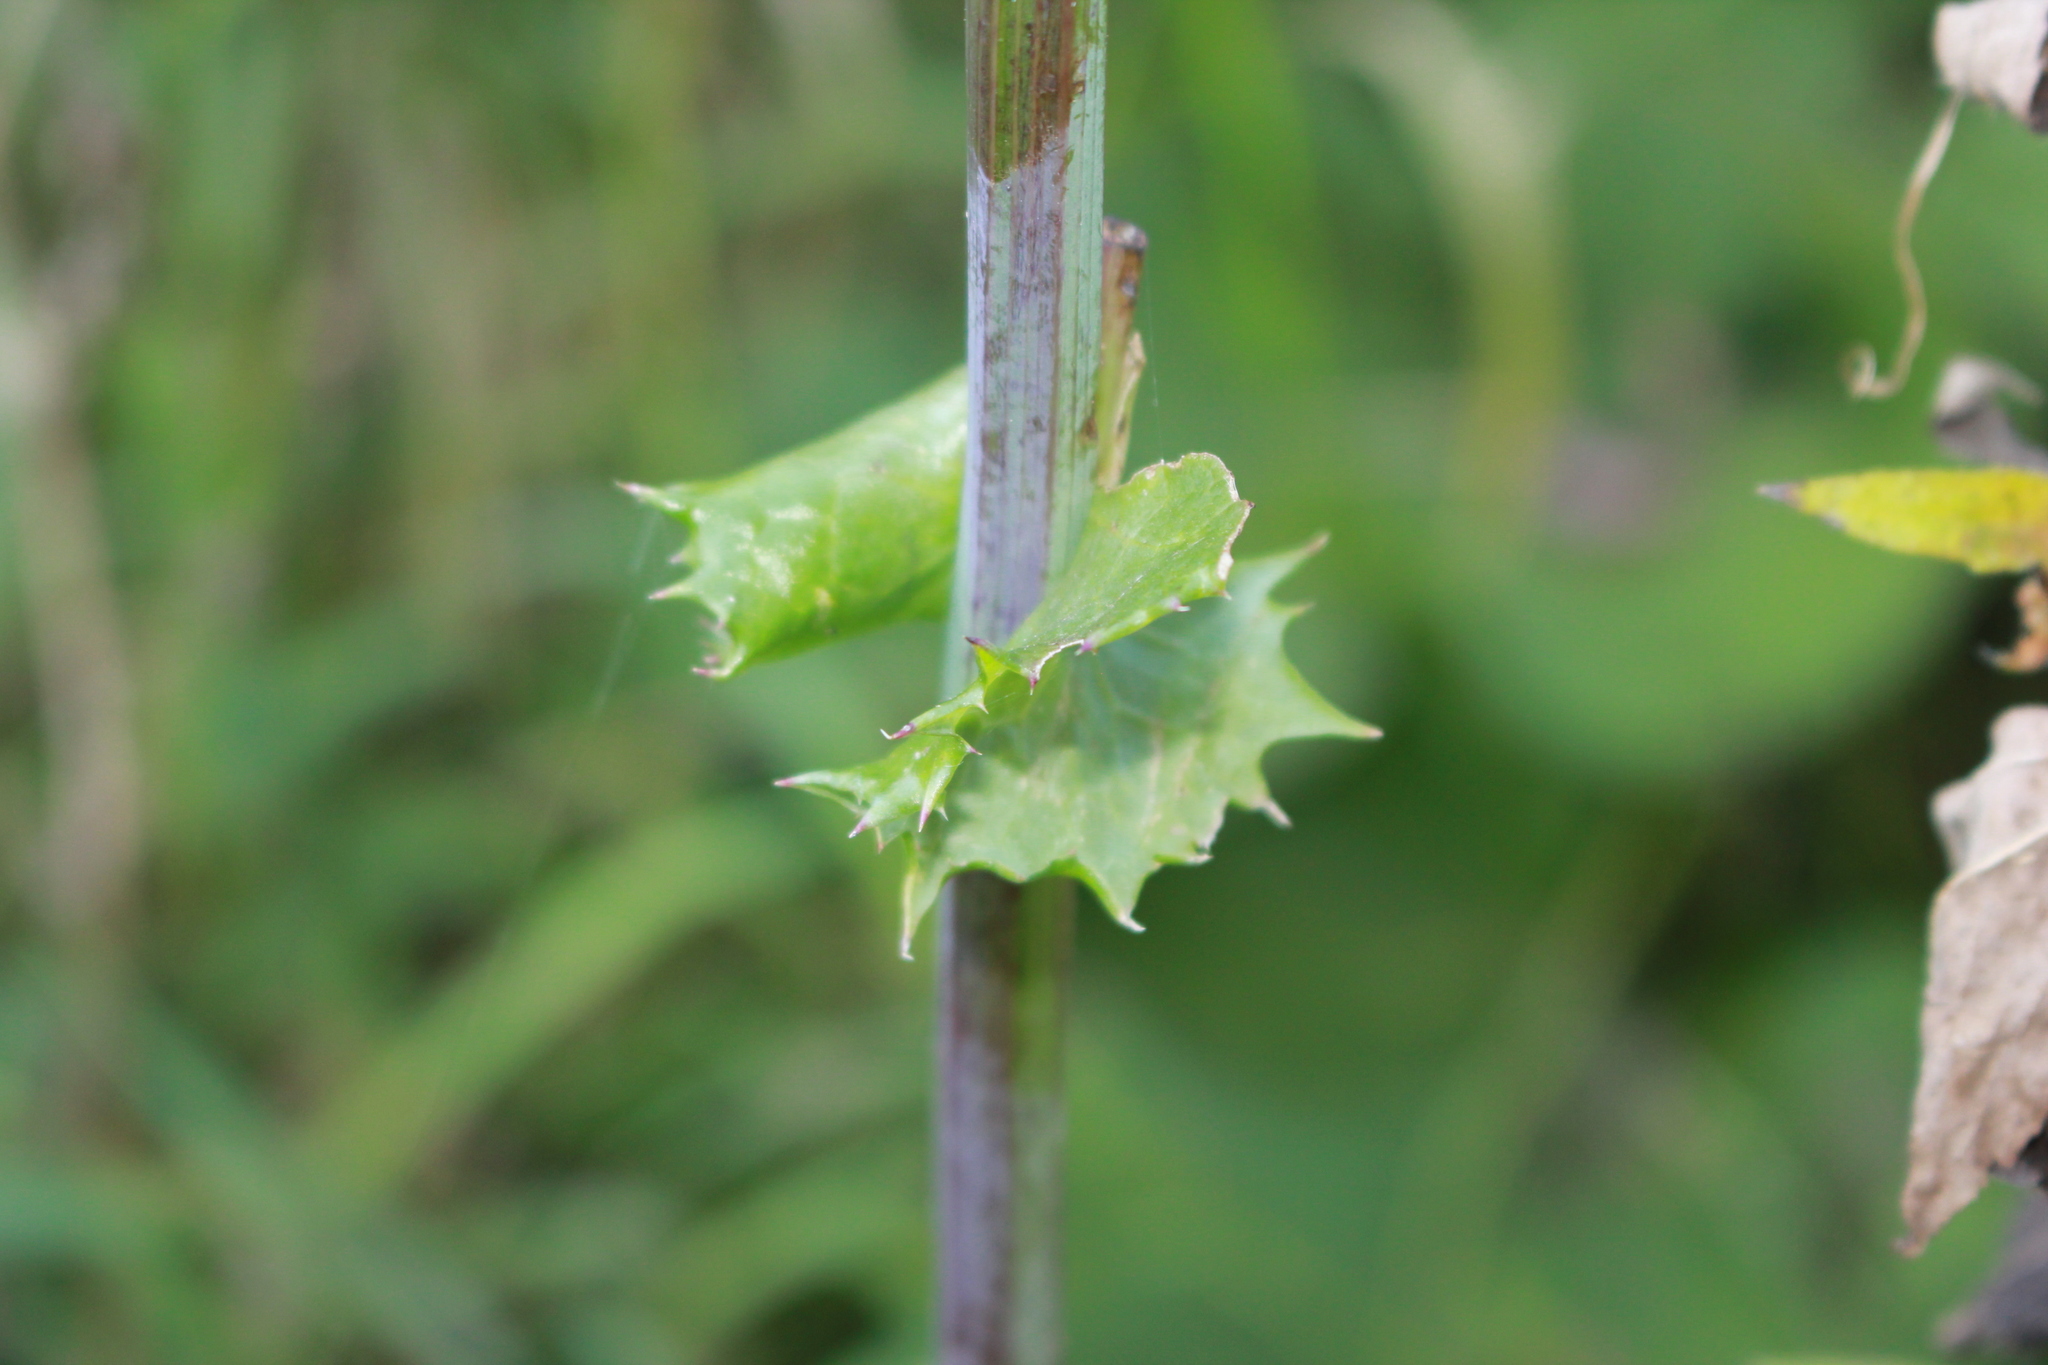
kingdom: Plantae
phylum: Tracheophyta
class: Magnoliopsida
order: Asterales
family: Asteraceae
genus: Sonchus
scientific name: Sonchus asper
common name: Prickly sow-thistle
